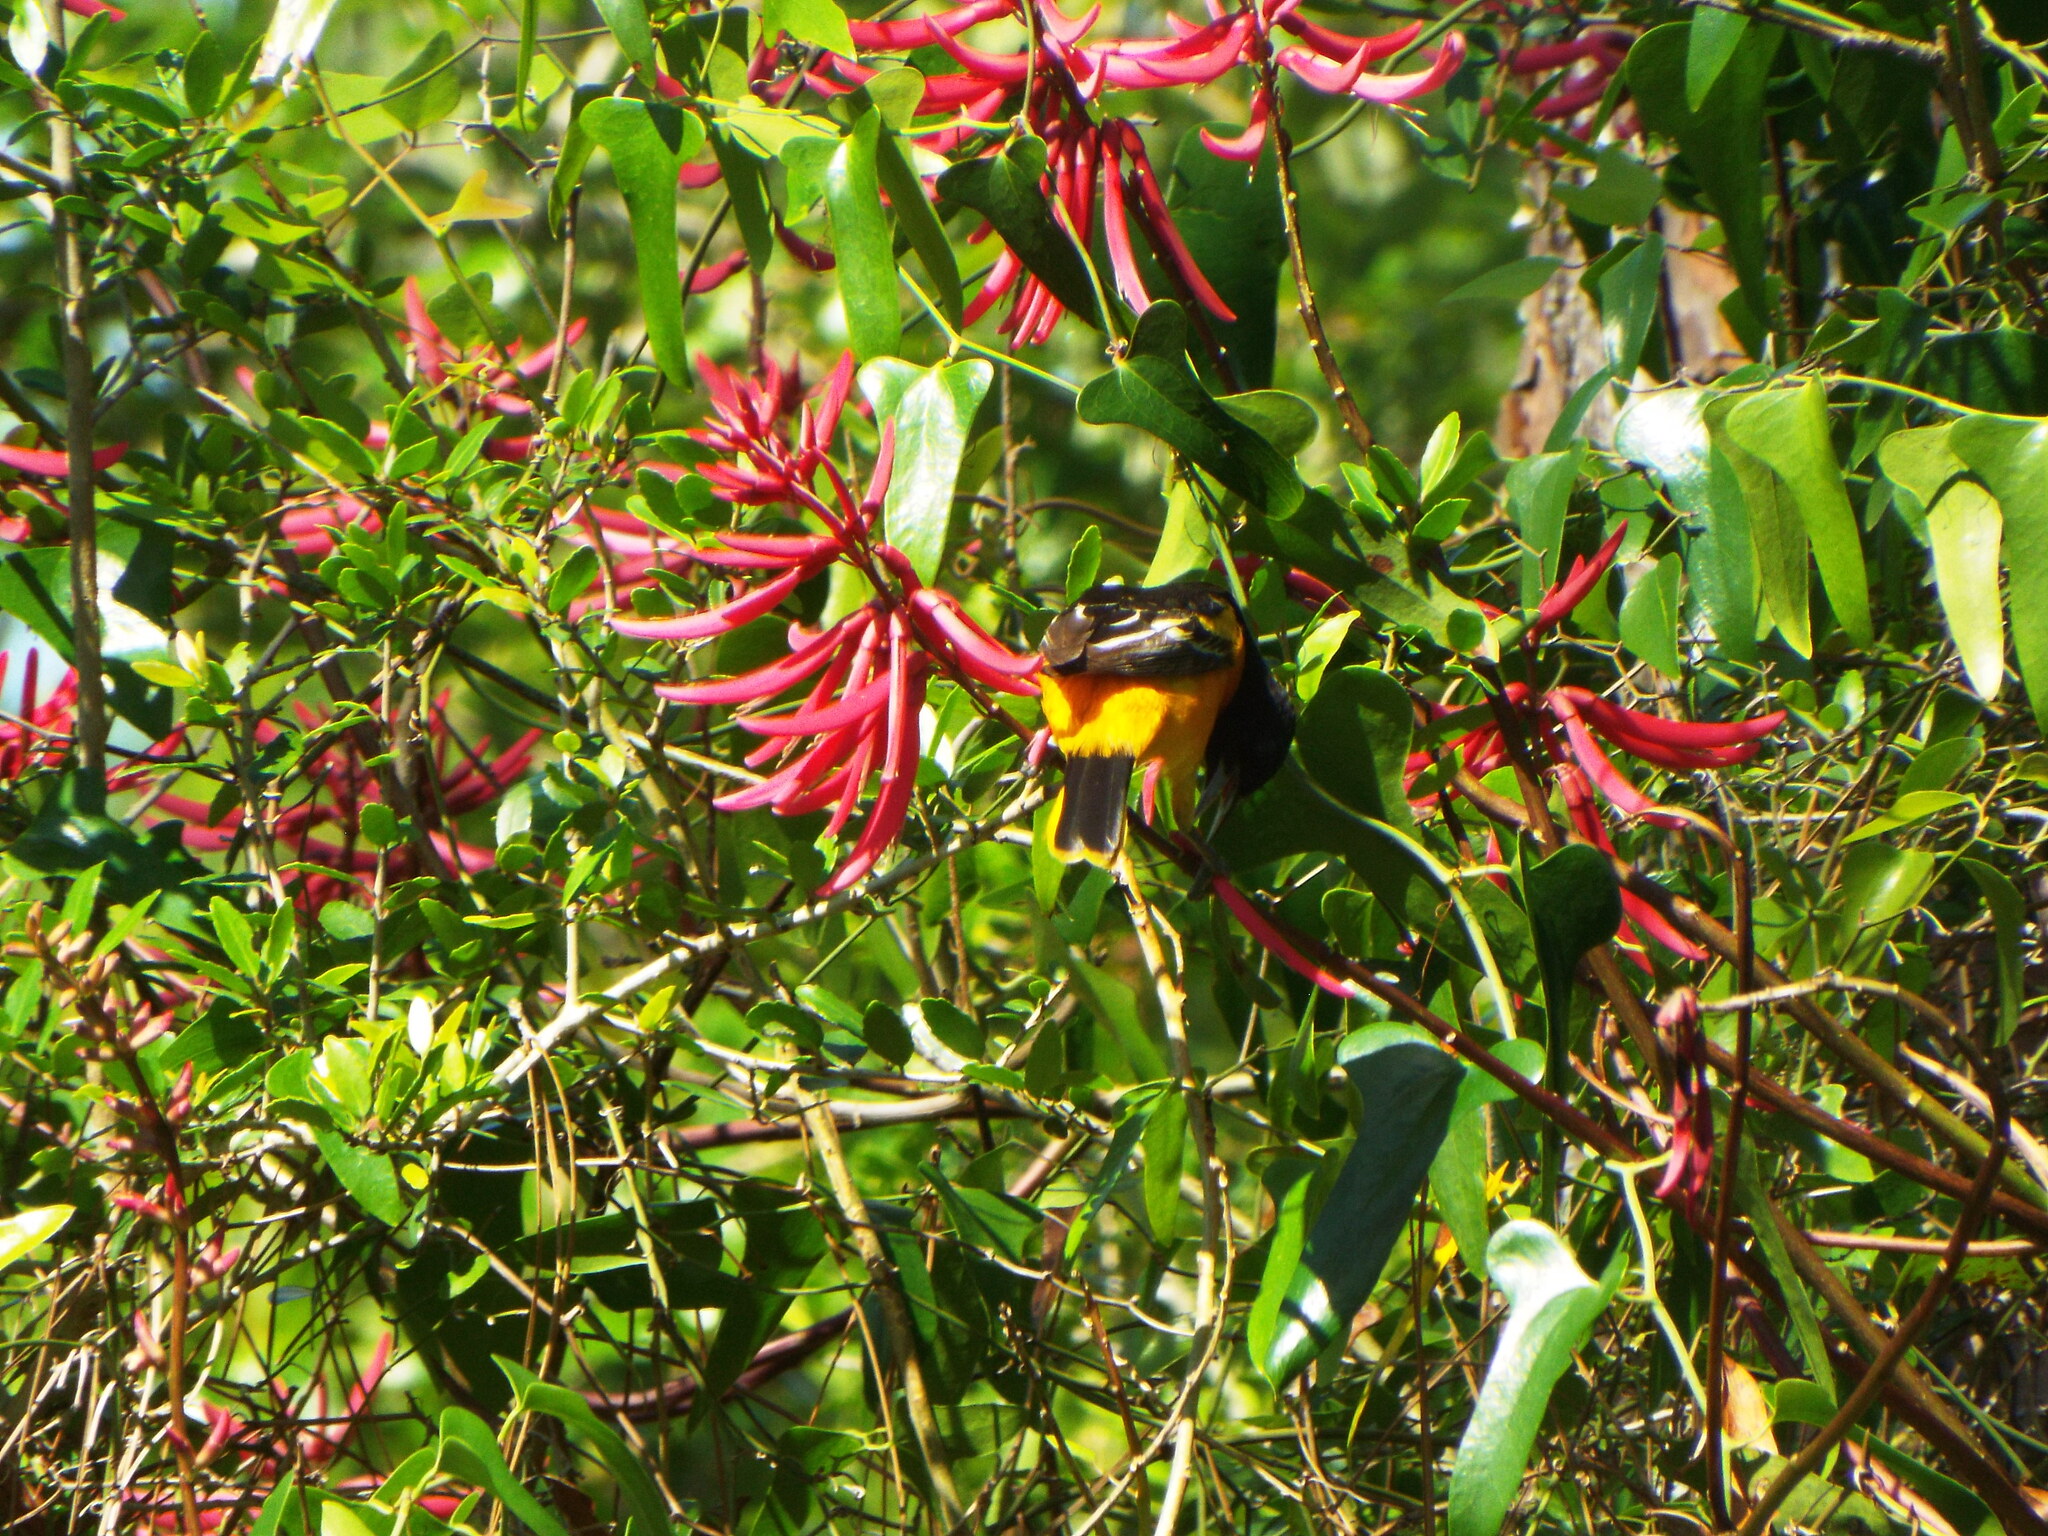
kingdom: Plantae
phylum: Tracheophyta
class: Magnoliopsida
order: Fabales
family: Fabaceae
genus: Erythrina
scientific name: Erythrina herbacea
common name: Coral-bean
